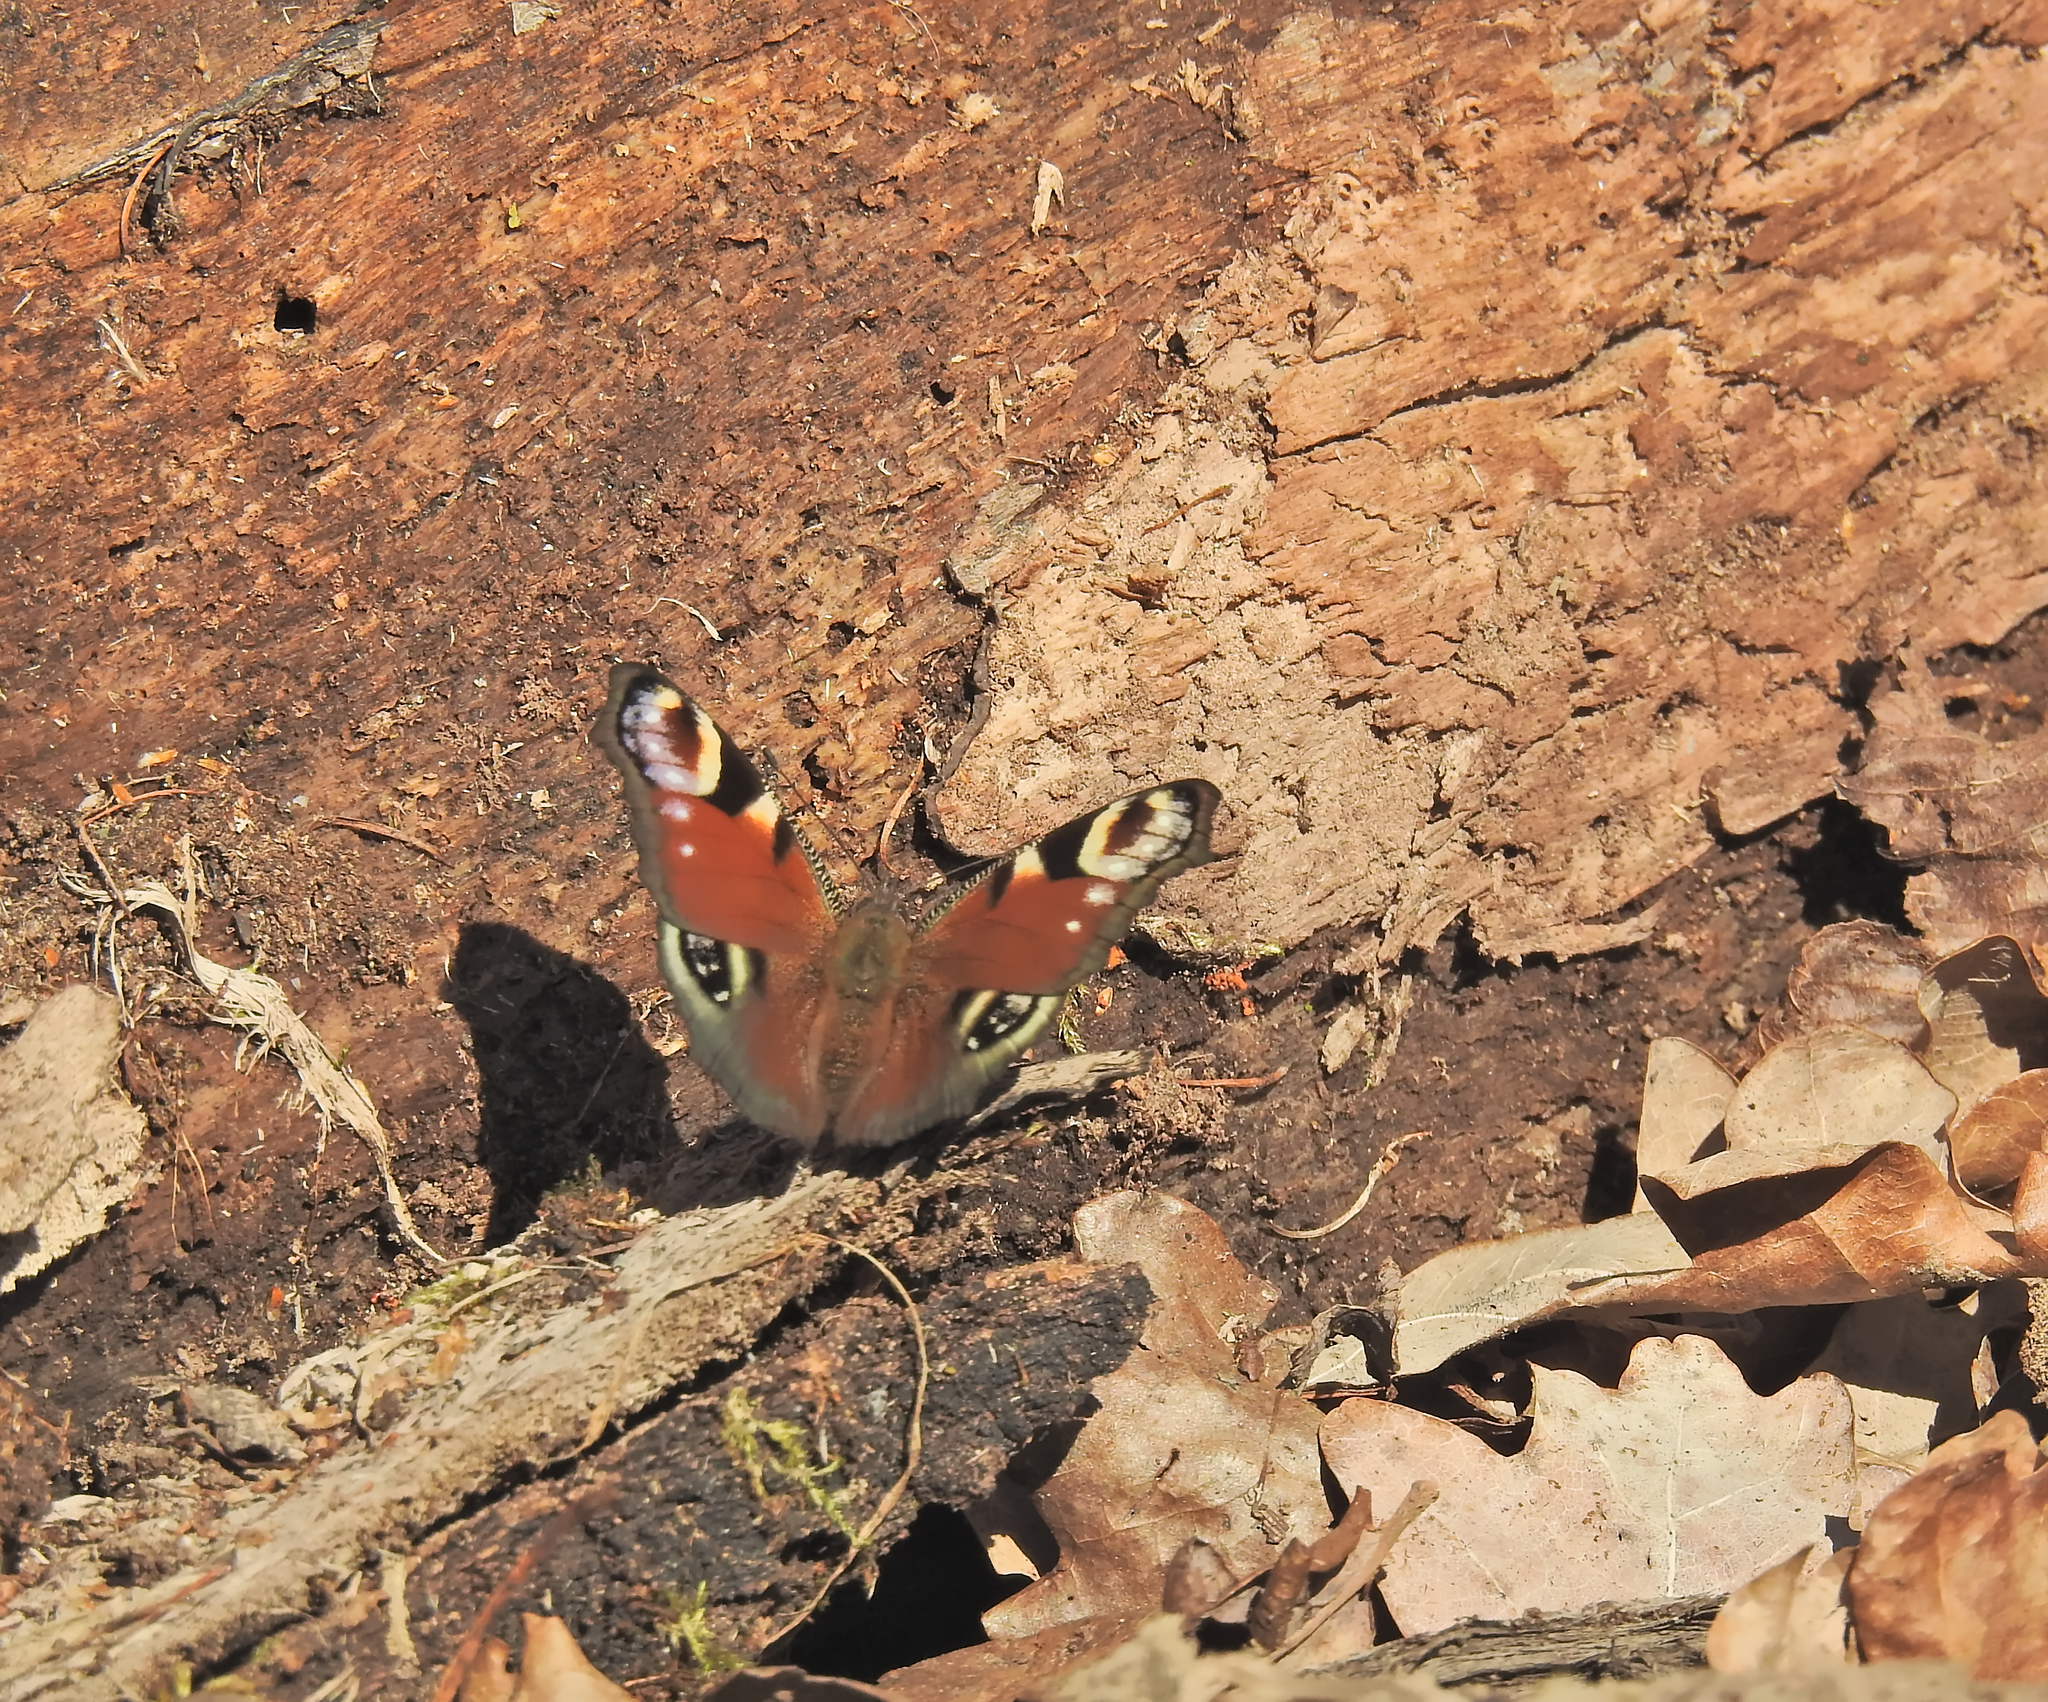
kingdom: Animalia
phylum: Arthropoda
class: Insecta
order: Lepidoptera
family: Nymphalidae
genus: Aglais
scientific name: Aglais io
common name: Peacock
